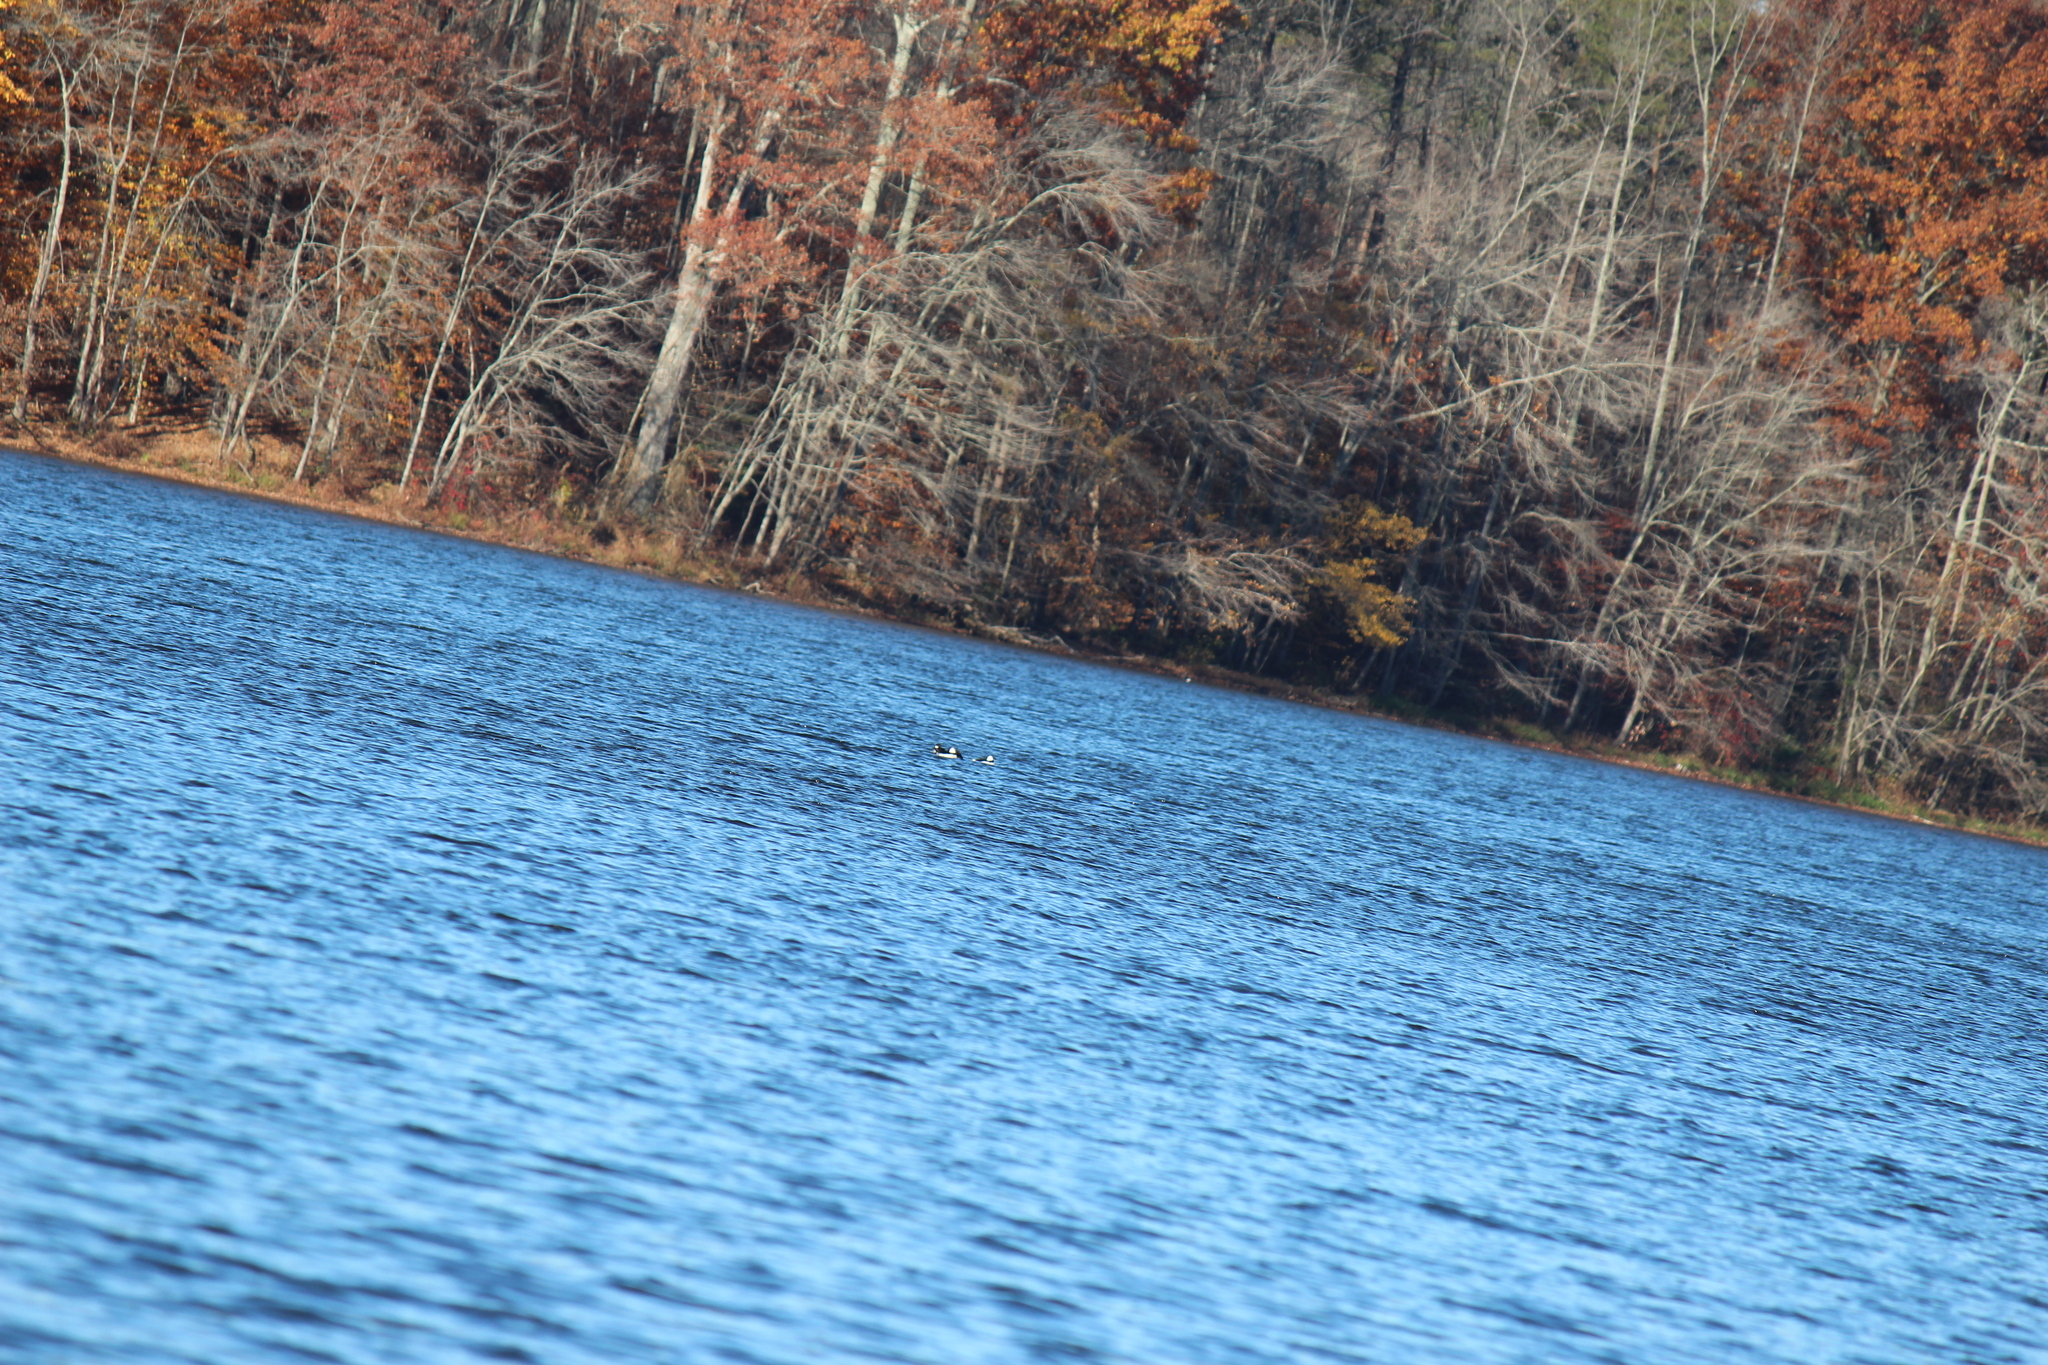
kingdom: Animalia
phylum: Chordata
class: Aves
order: Anseriformes
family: Anatidae
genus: Bucephala
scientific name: Bucephala albeola
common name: Bufflehead
